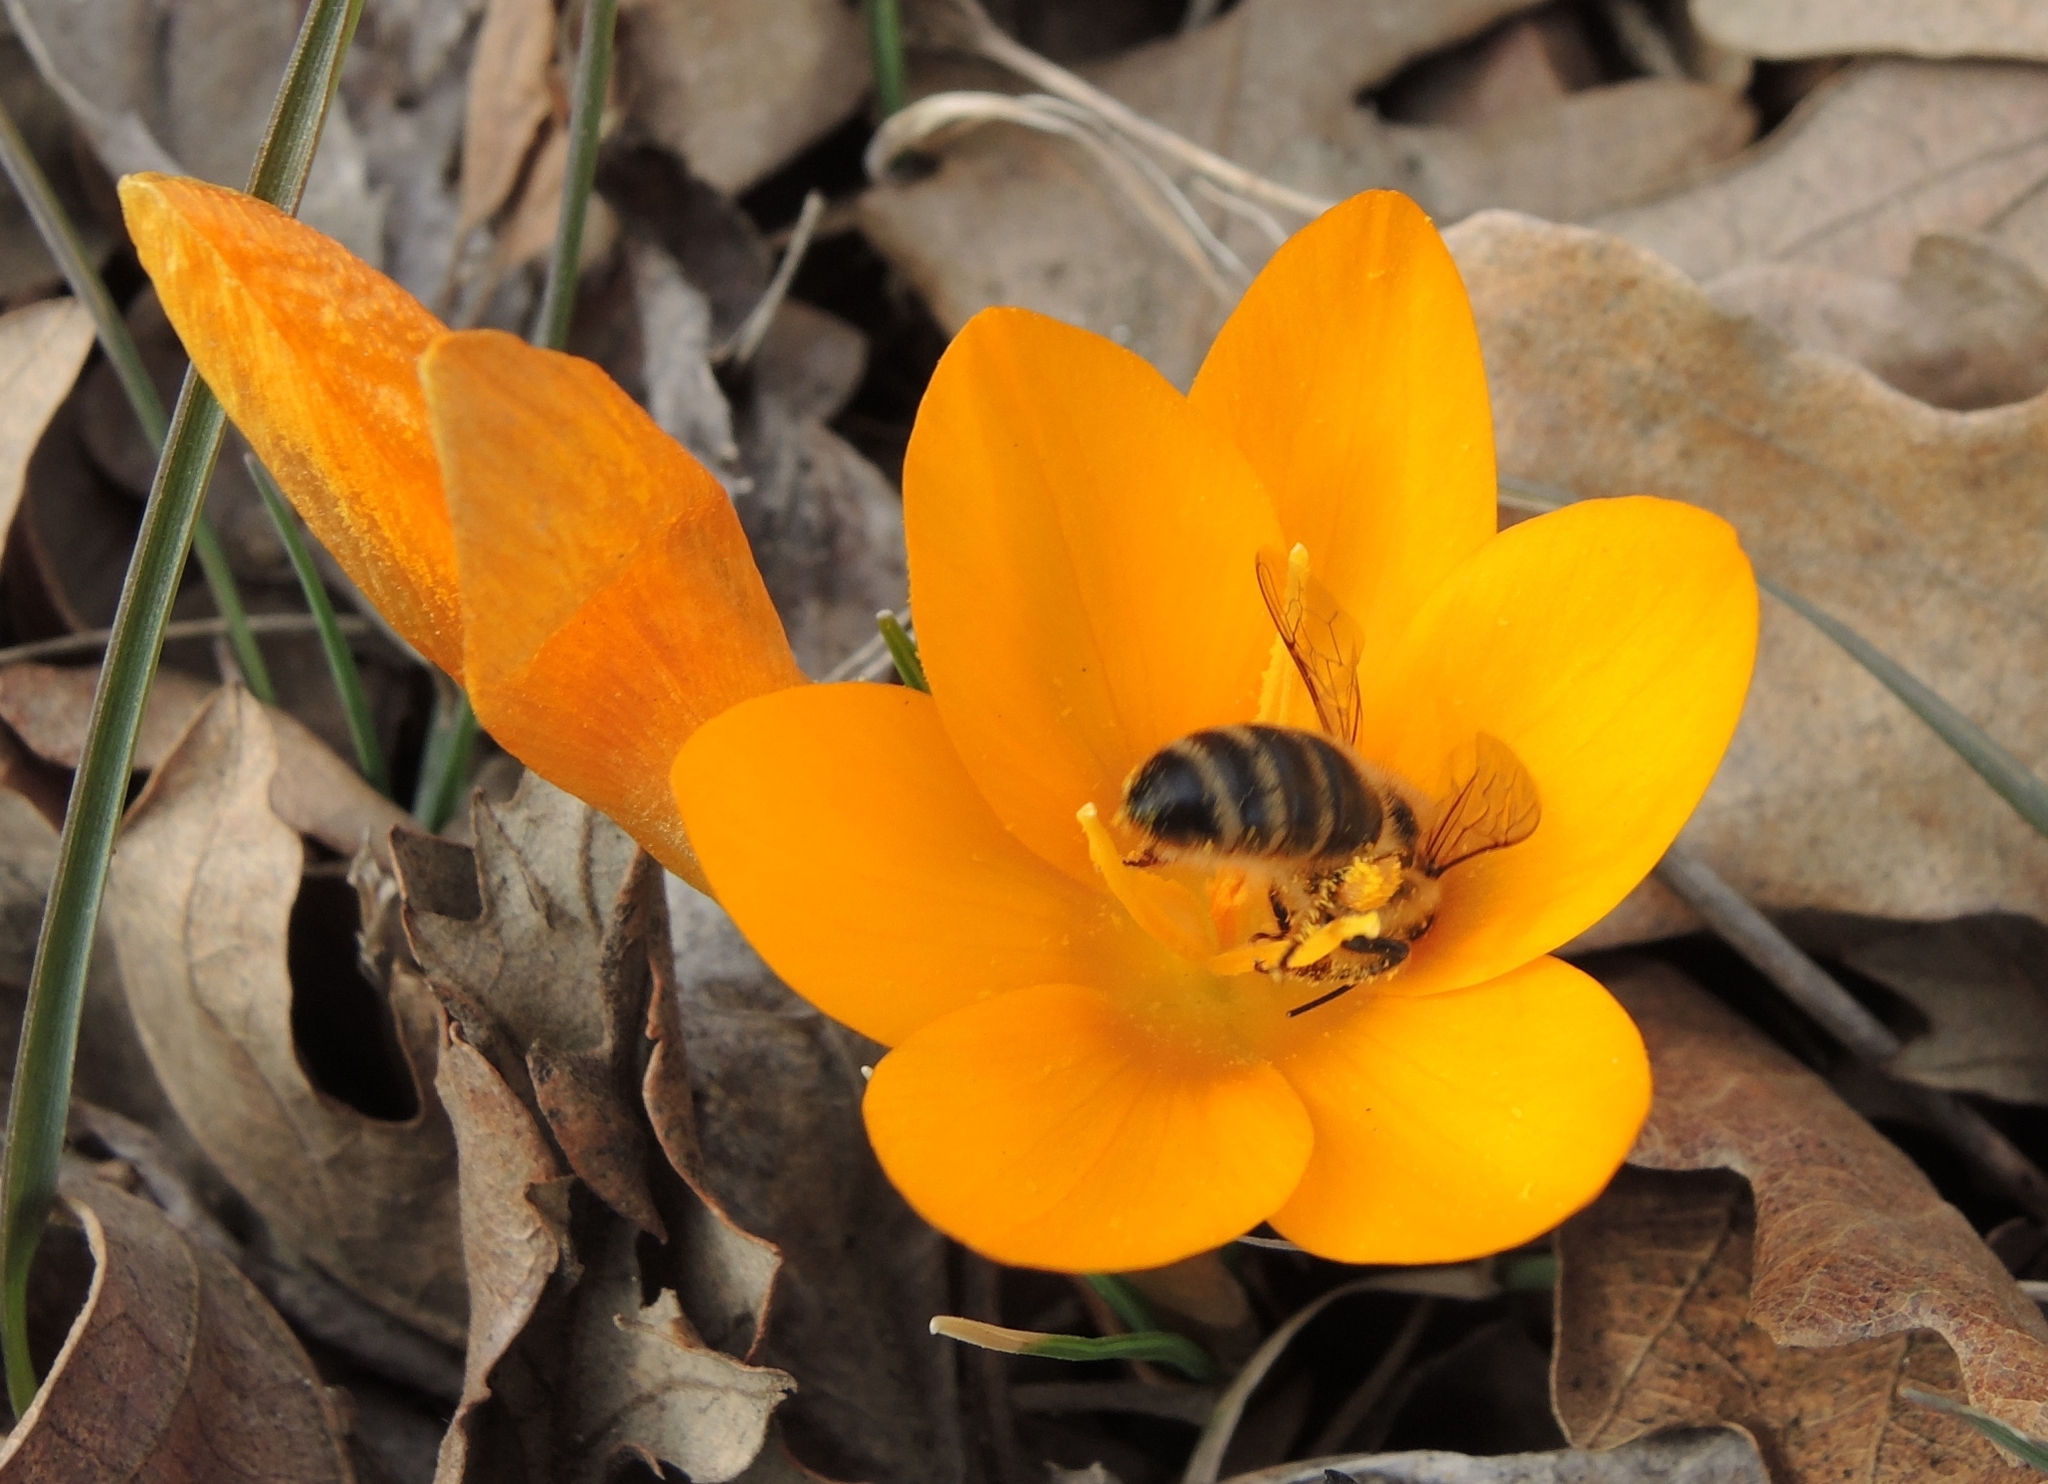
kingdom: Animalia
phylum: Arthropoda
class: Insecta
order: Hymenoptera
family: Apidae
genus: Apis
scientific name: Apis mellifera
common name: Honey bee
